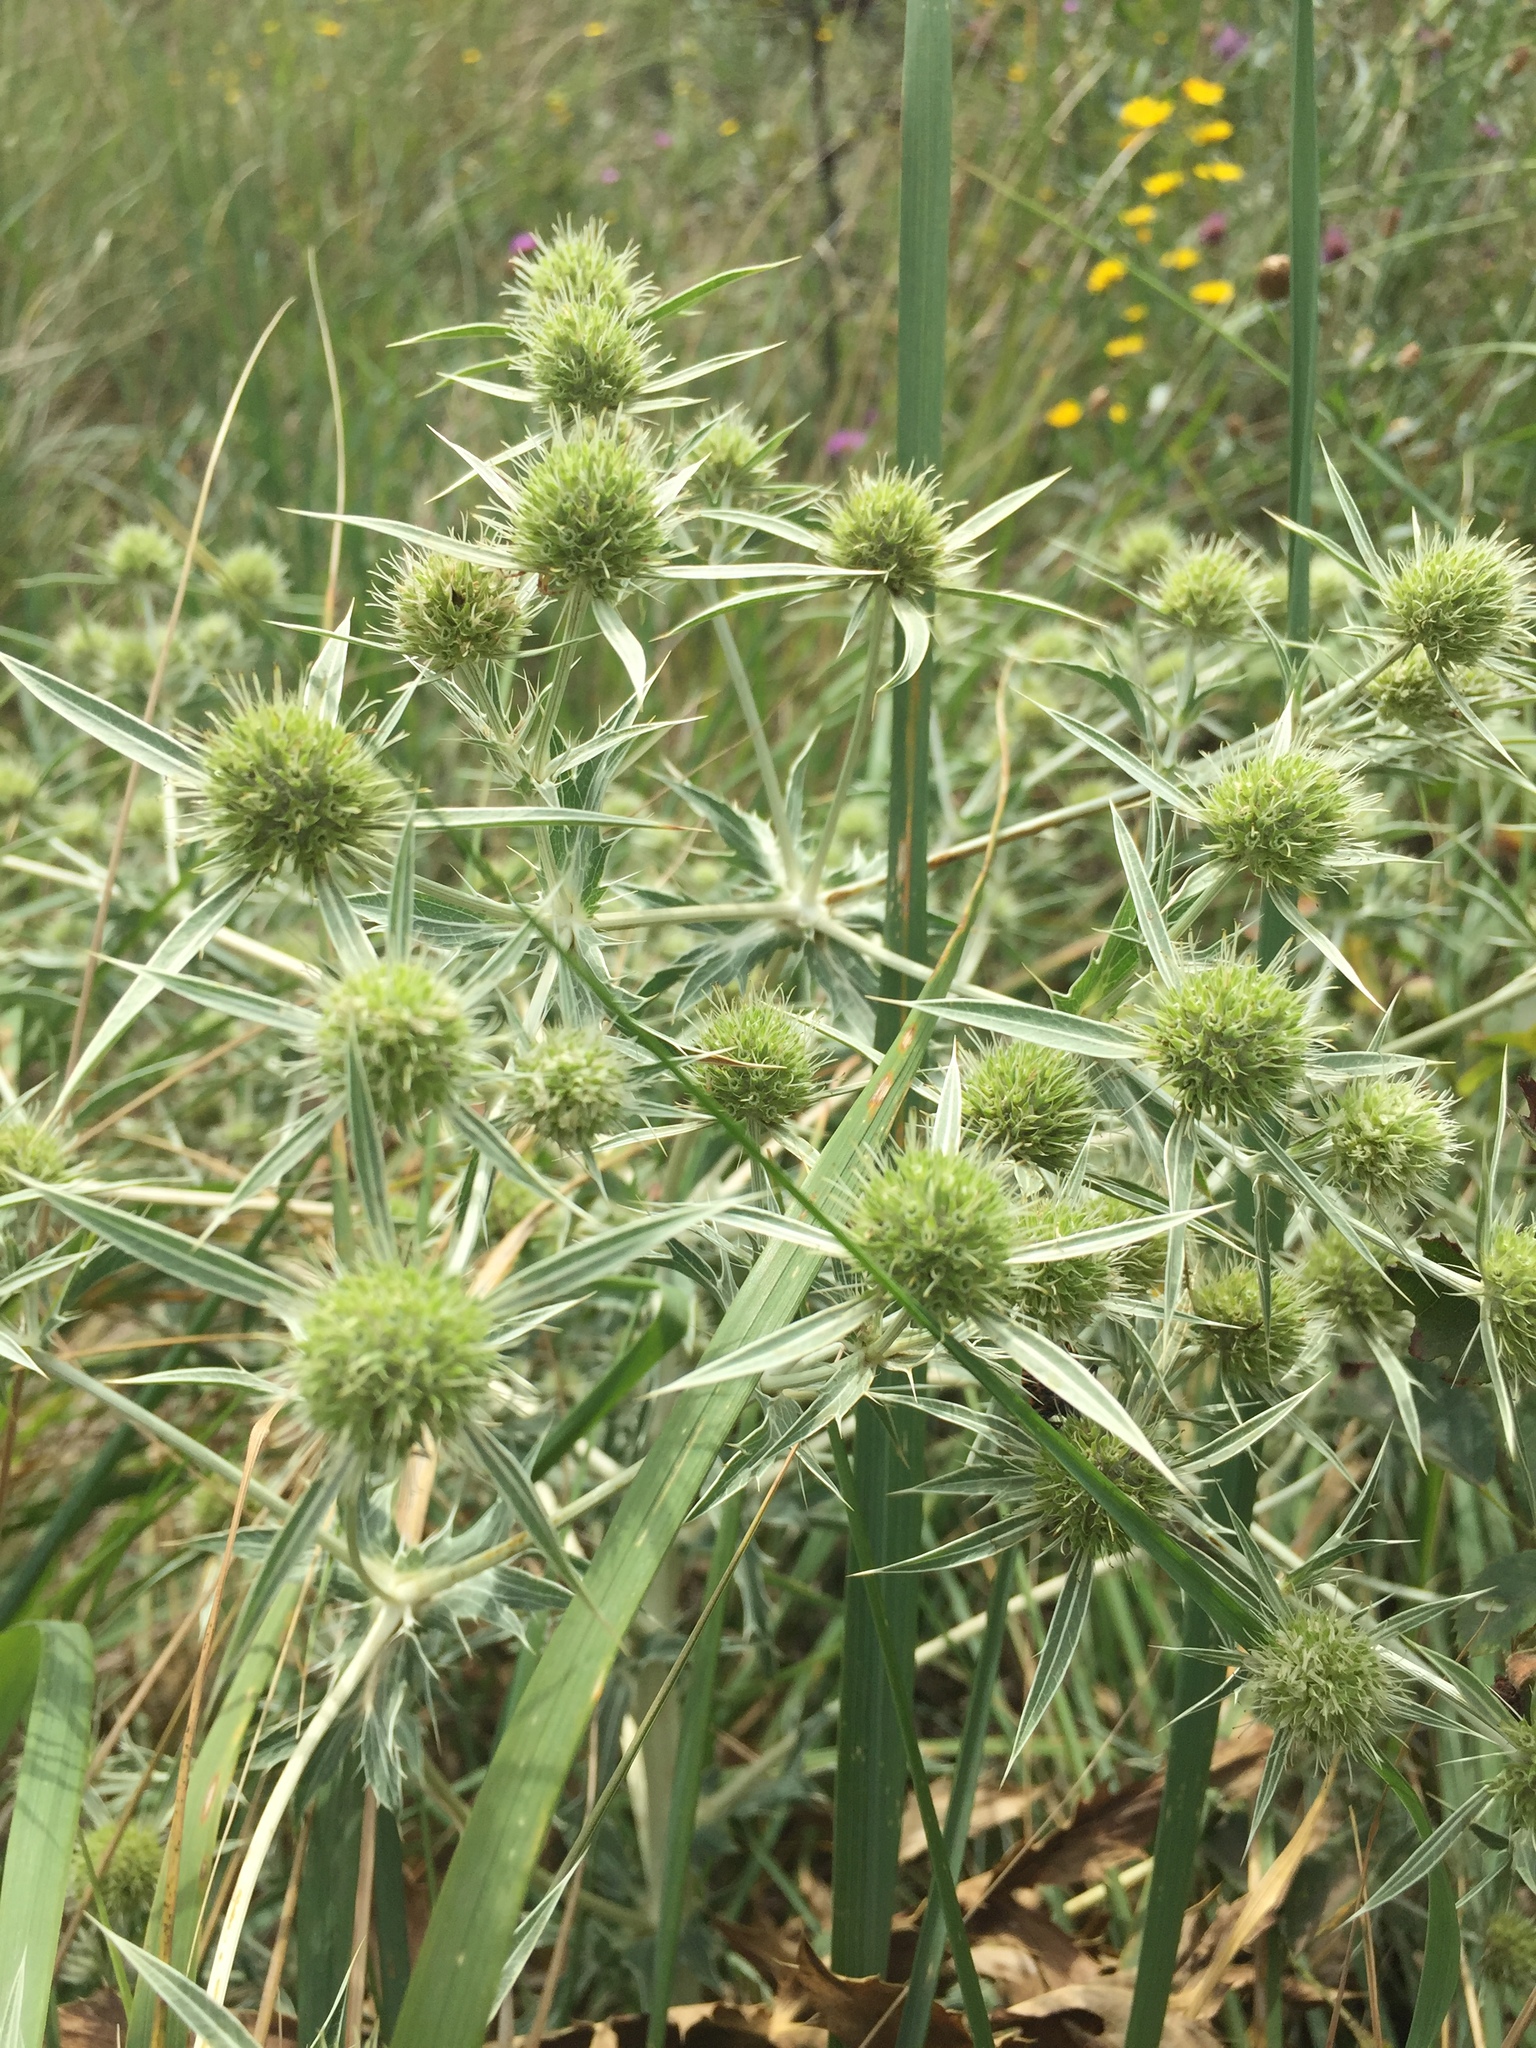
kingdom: Plantae
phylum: Tracheophyta
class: Magnoliopsida
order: Apiales
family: Apiaceae
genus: Eryngium
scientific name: Eryngium campestre
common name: Field eryngo
